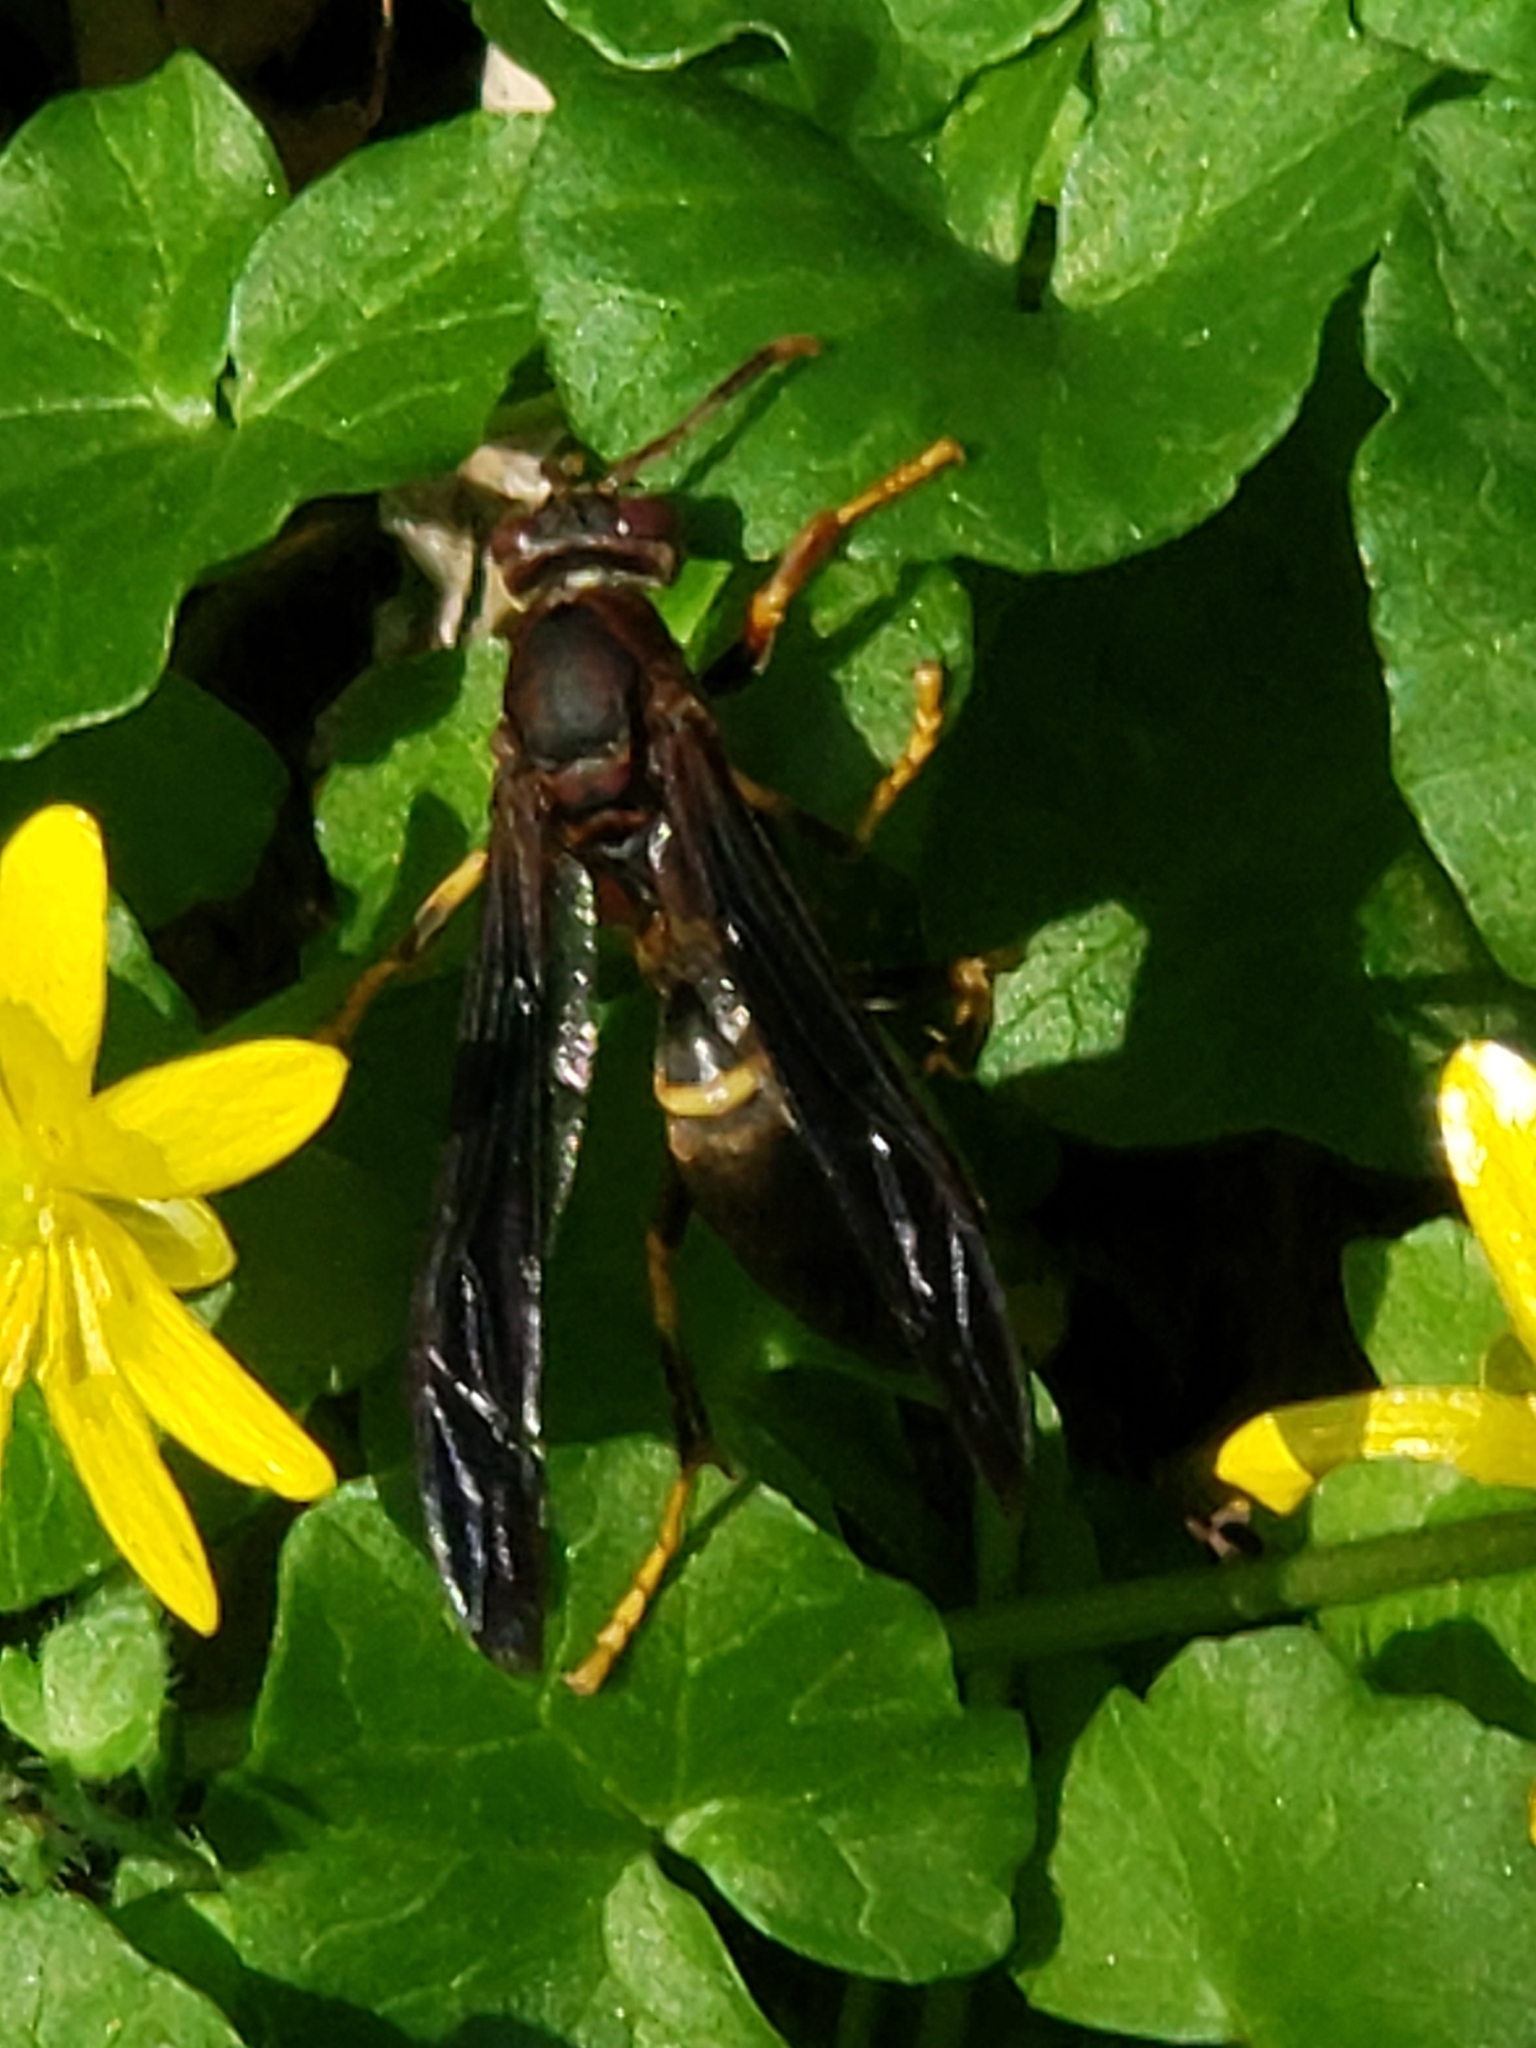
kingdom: Animalia
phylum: Arthropoda
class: Insecta
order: Hymenoptera
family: Eumenidae
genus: Polistes
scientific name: Polistes annularis
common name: Ringed paper wasp
